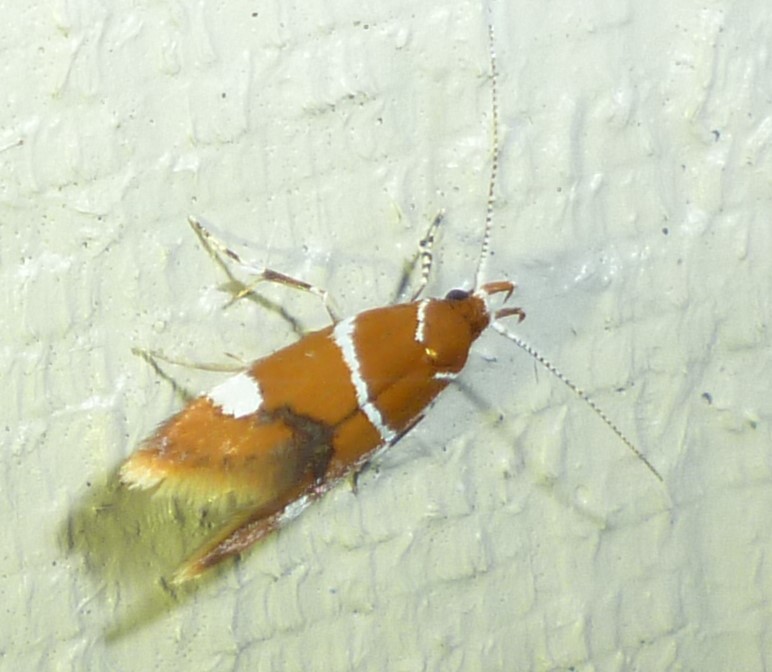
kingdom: Animalia
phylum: Arthropoda
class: Insecta
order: Lepidoptera
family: Oecophoridae
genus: Promalactis
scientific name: Promalactis suzukiella
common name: Moth
